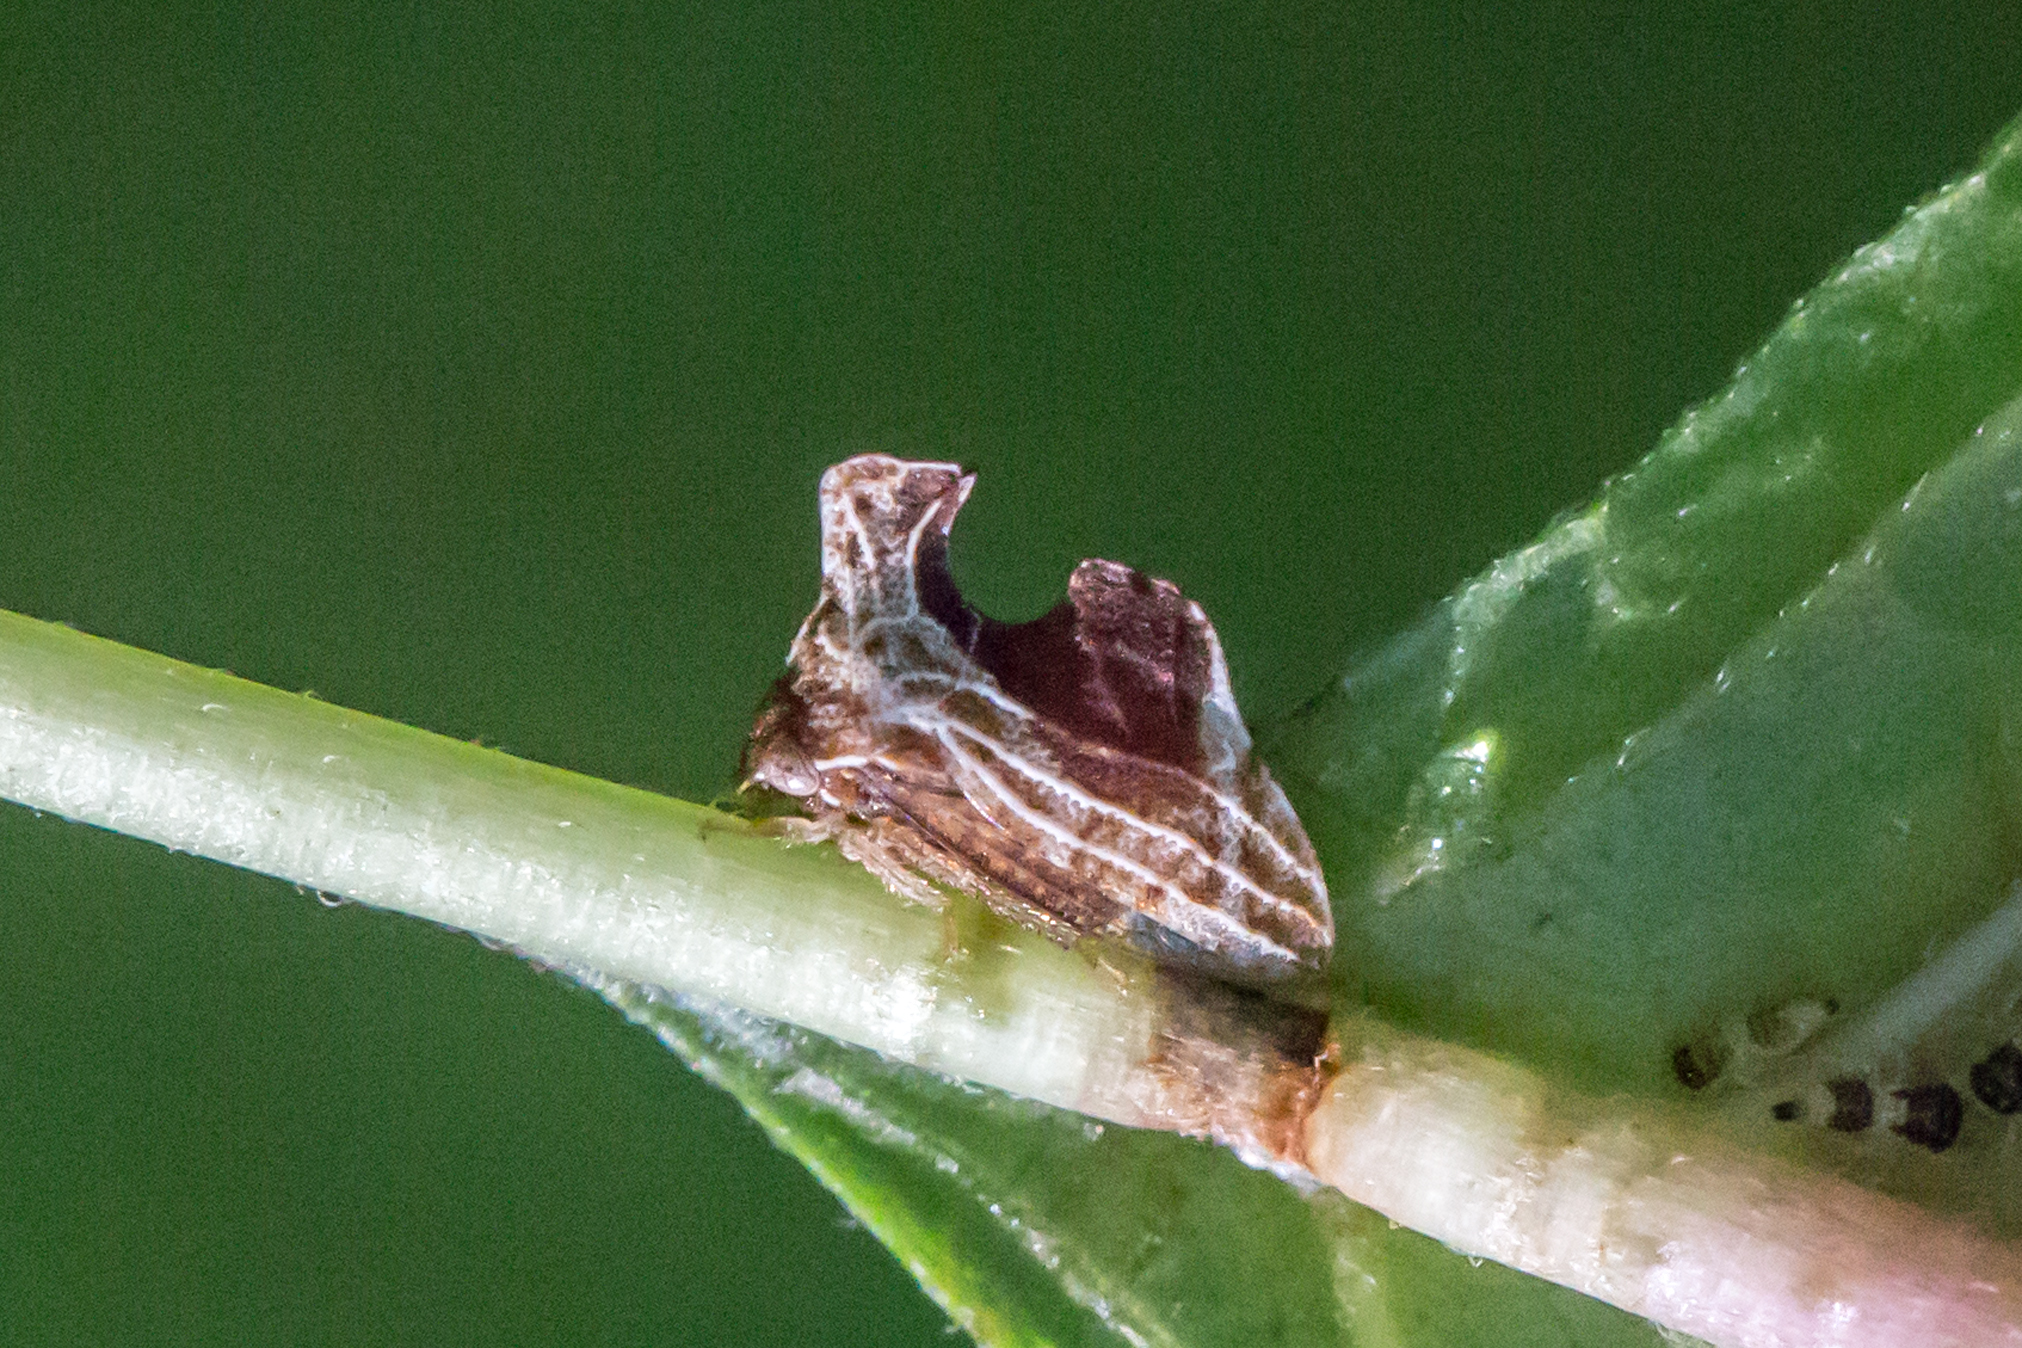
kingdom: Animalia
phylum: Arthropoda
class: Insecta
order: Hemiptera
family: Membracidae
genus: Entylia
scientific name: Entylia carinata
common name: Keeled treehopper
